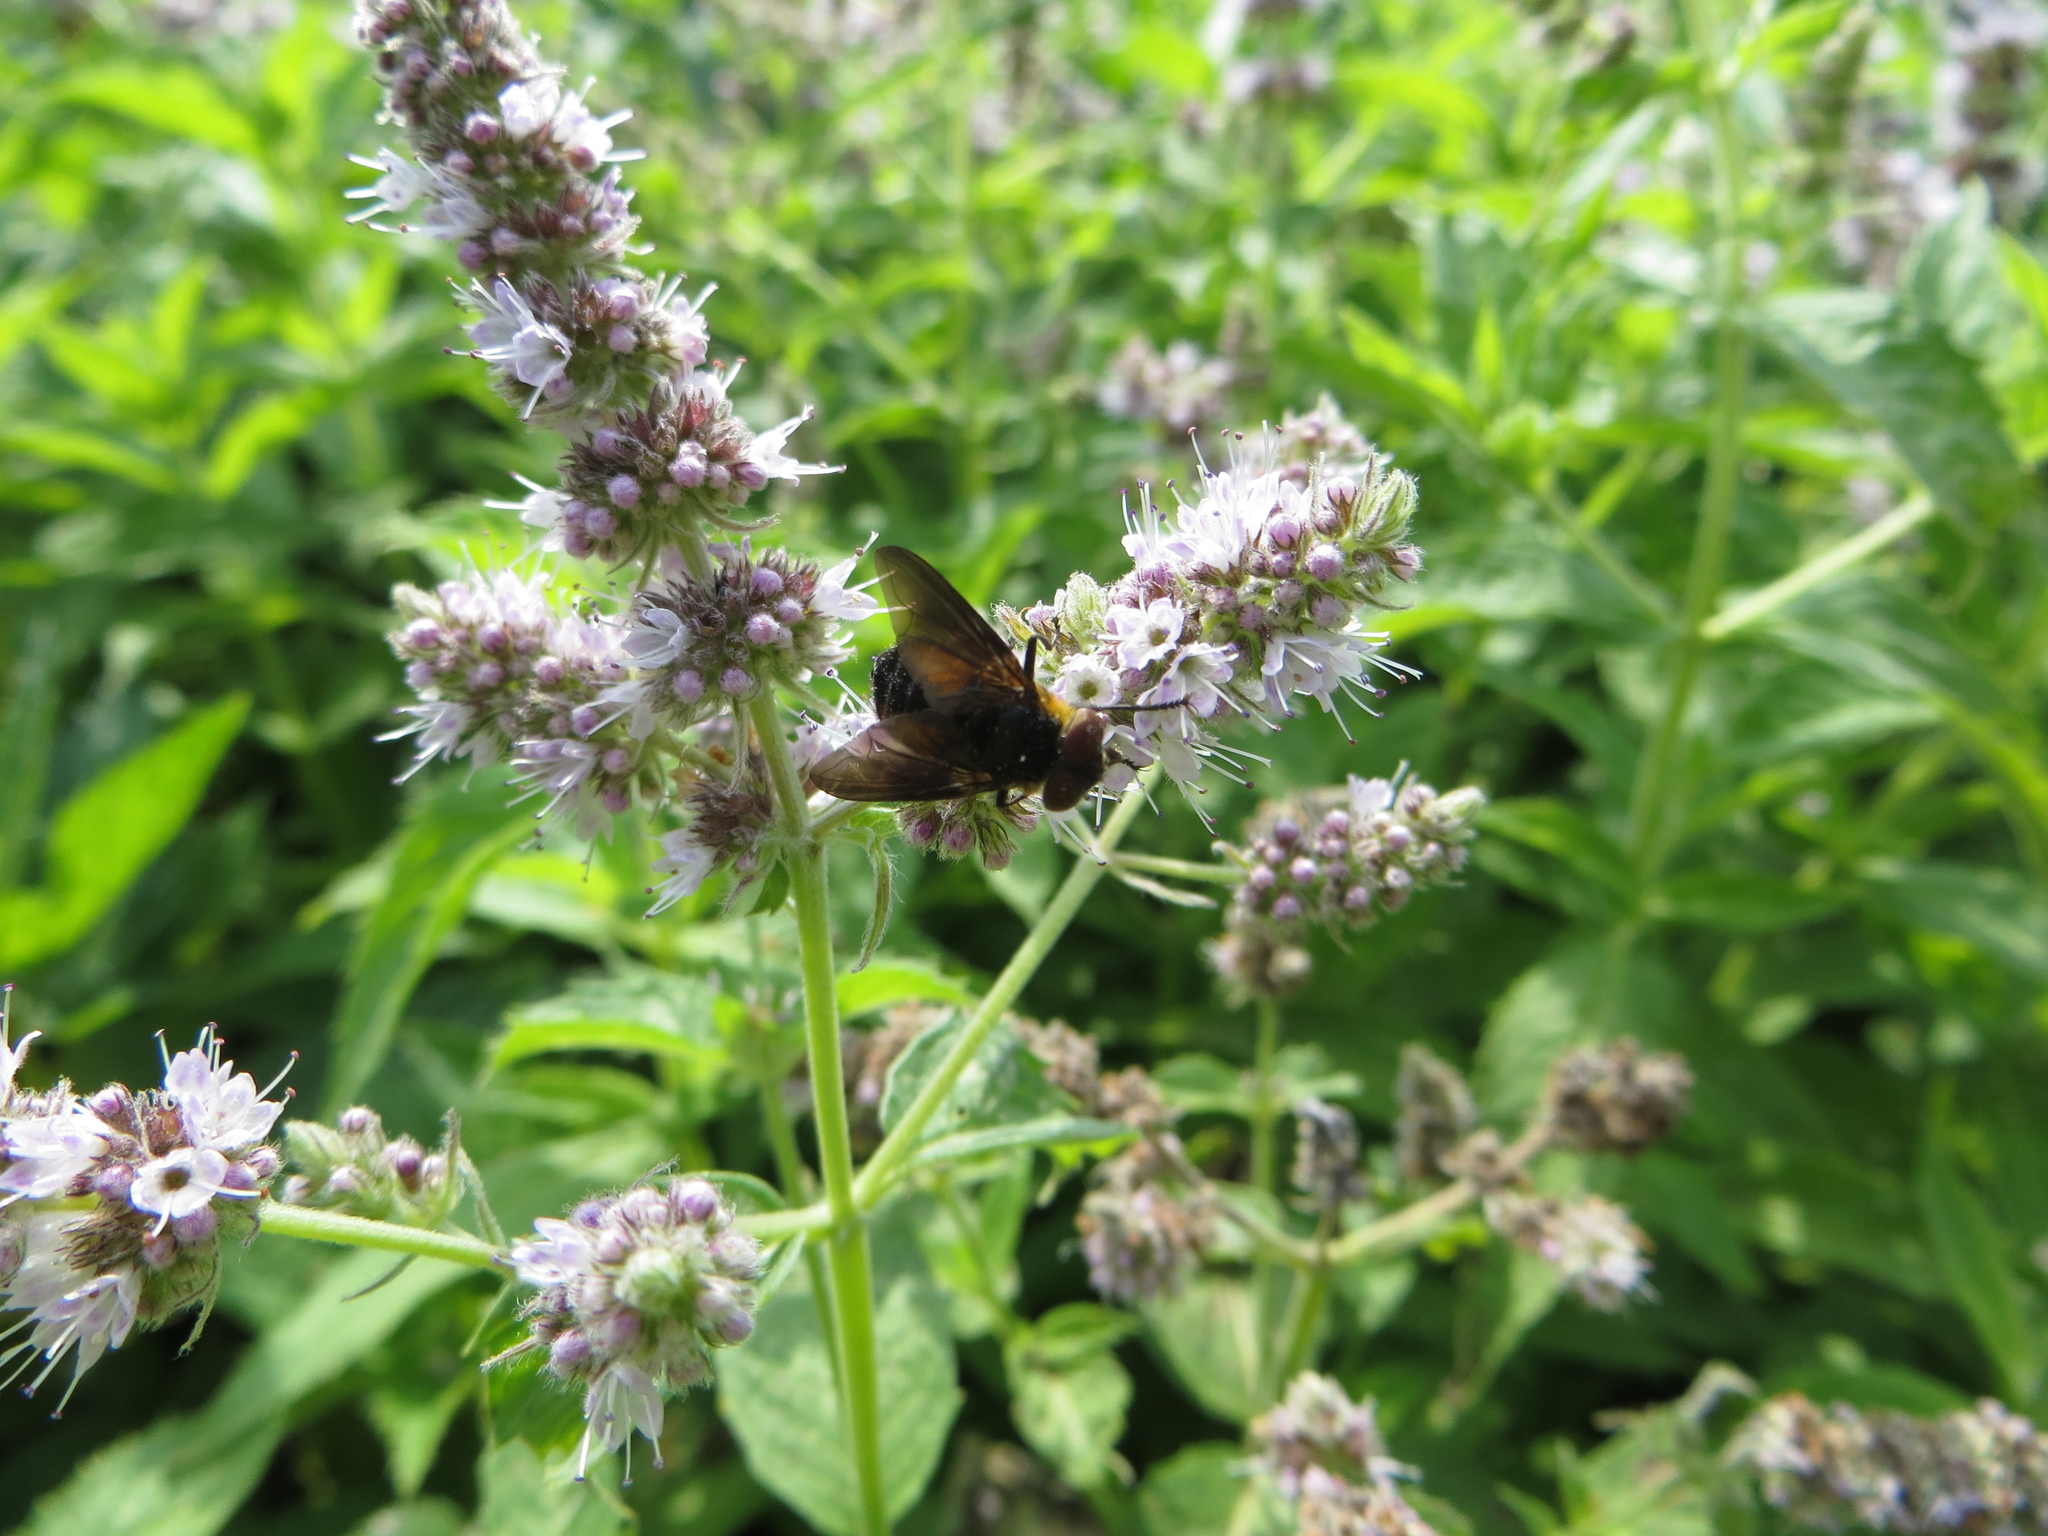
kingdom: Animalia
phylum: Arthropoda
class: Insecta
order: Diptera
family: Tachinidae
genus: Phasia
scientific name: Phasia hemiptera
